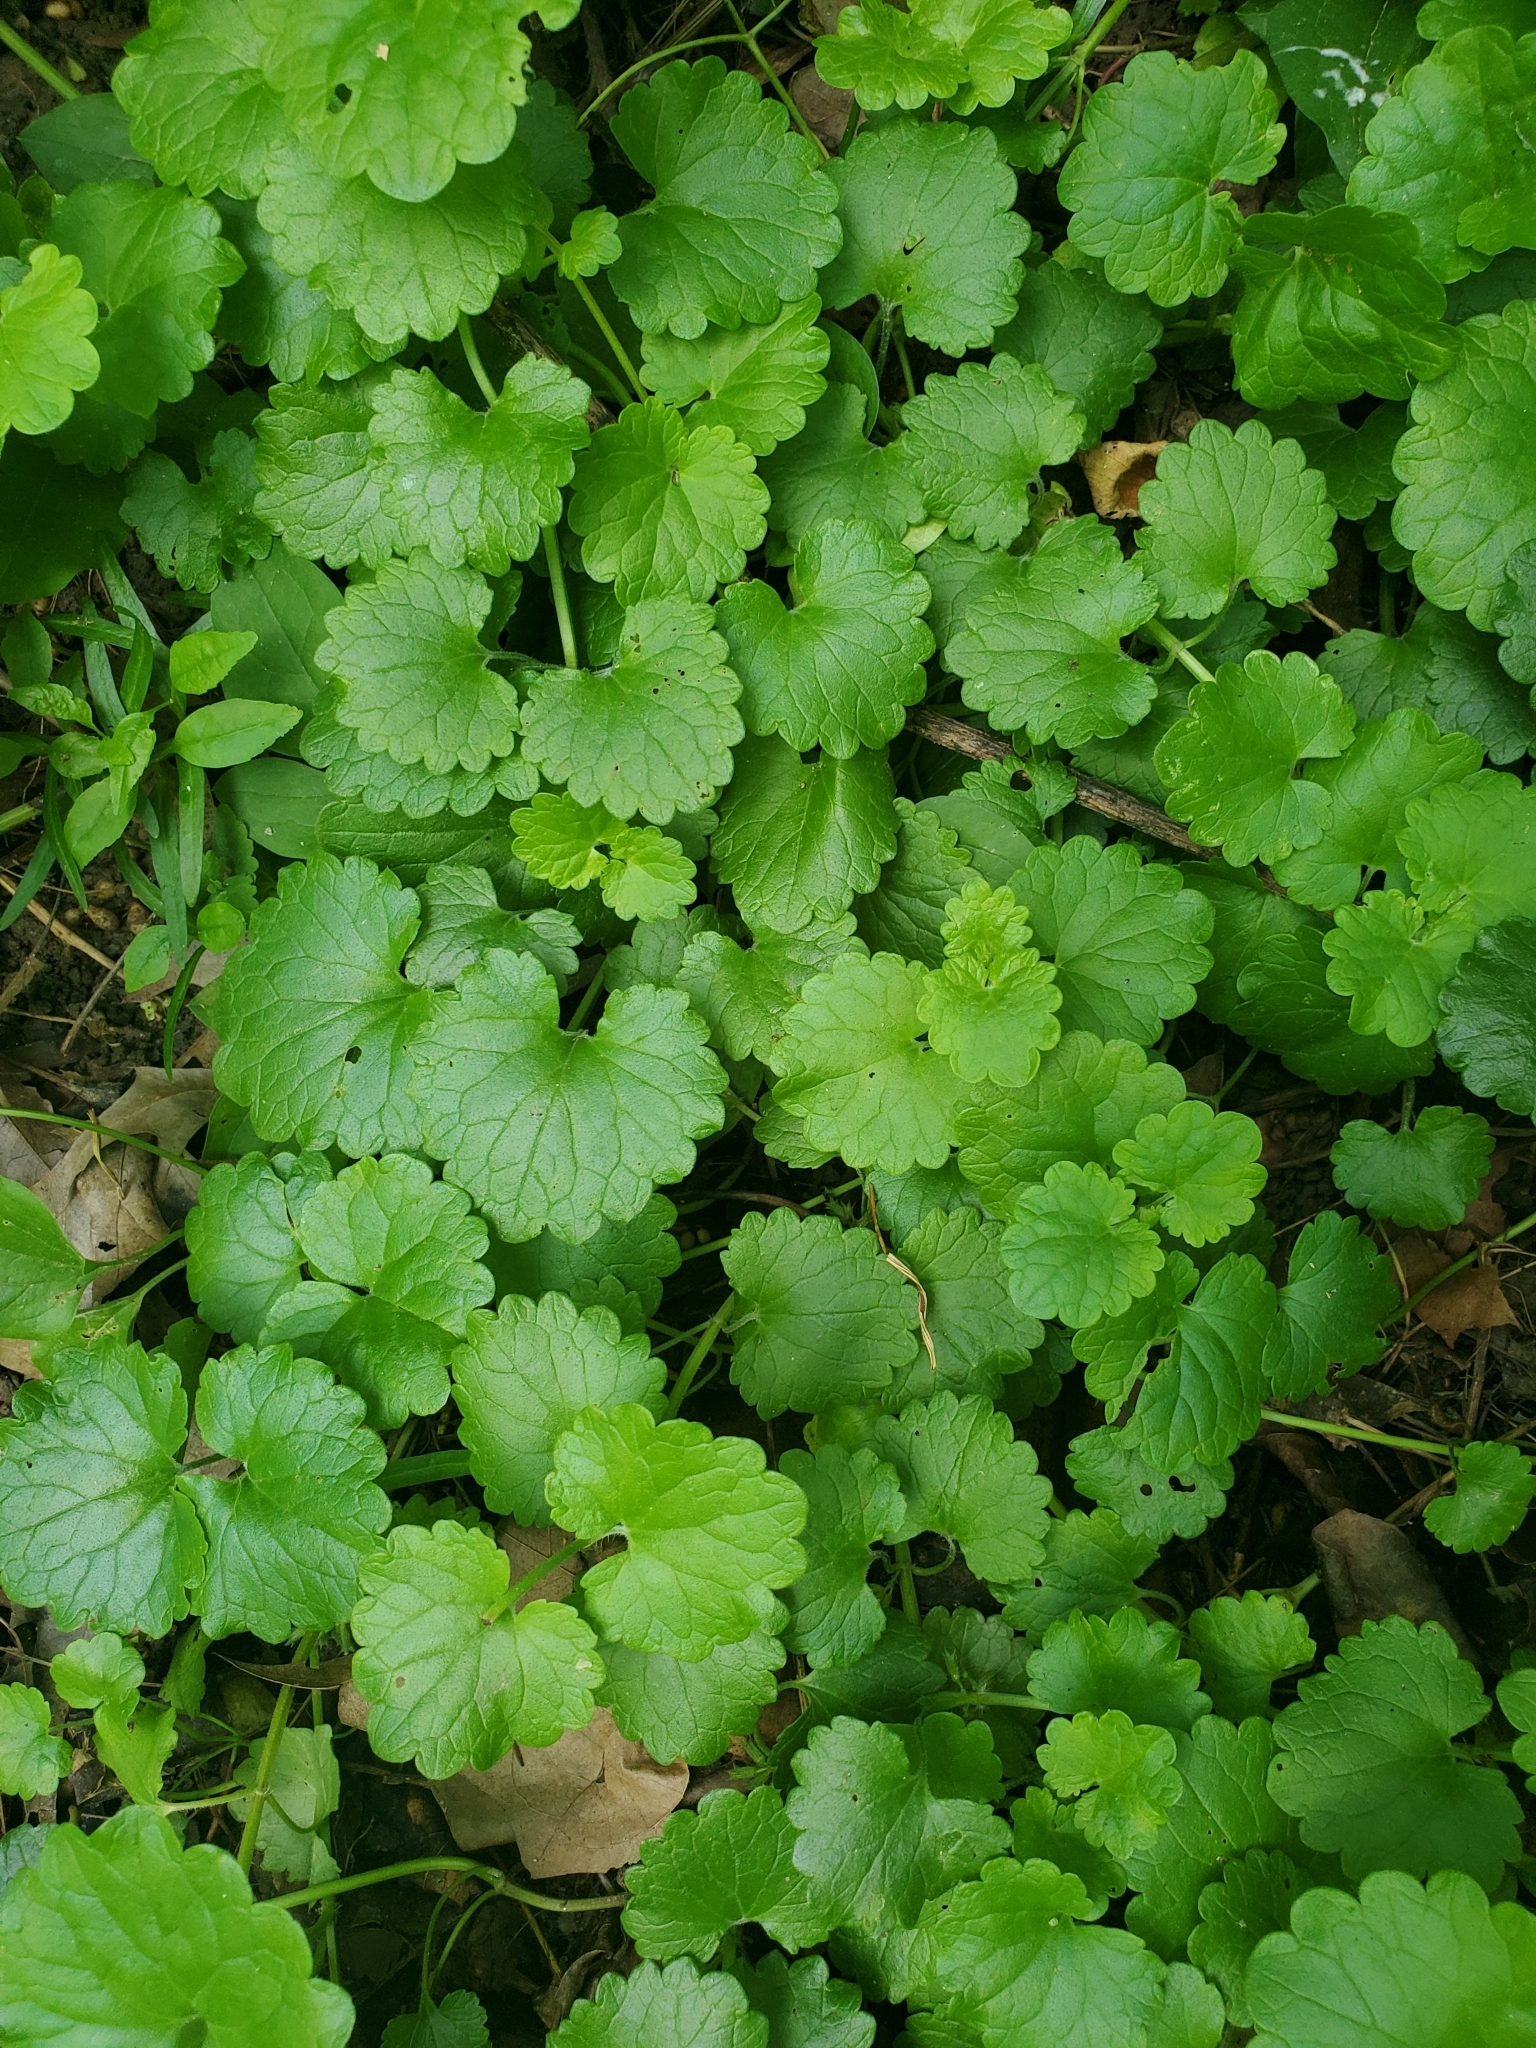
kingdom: Plantae
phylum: Tracheophyta
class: Magnoliopsida
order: Lamiales
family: Lamiaceae
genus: Glechoma
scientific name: Glechoma hederacea
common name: Ground ivy
